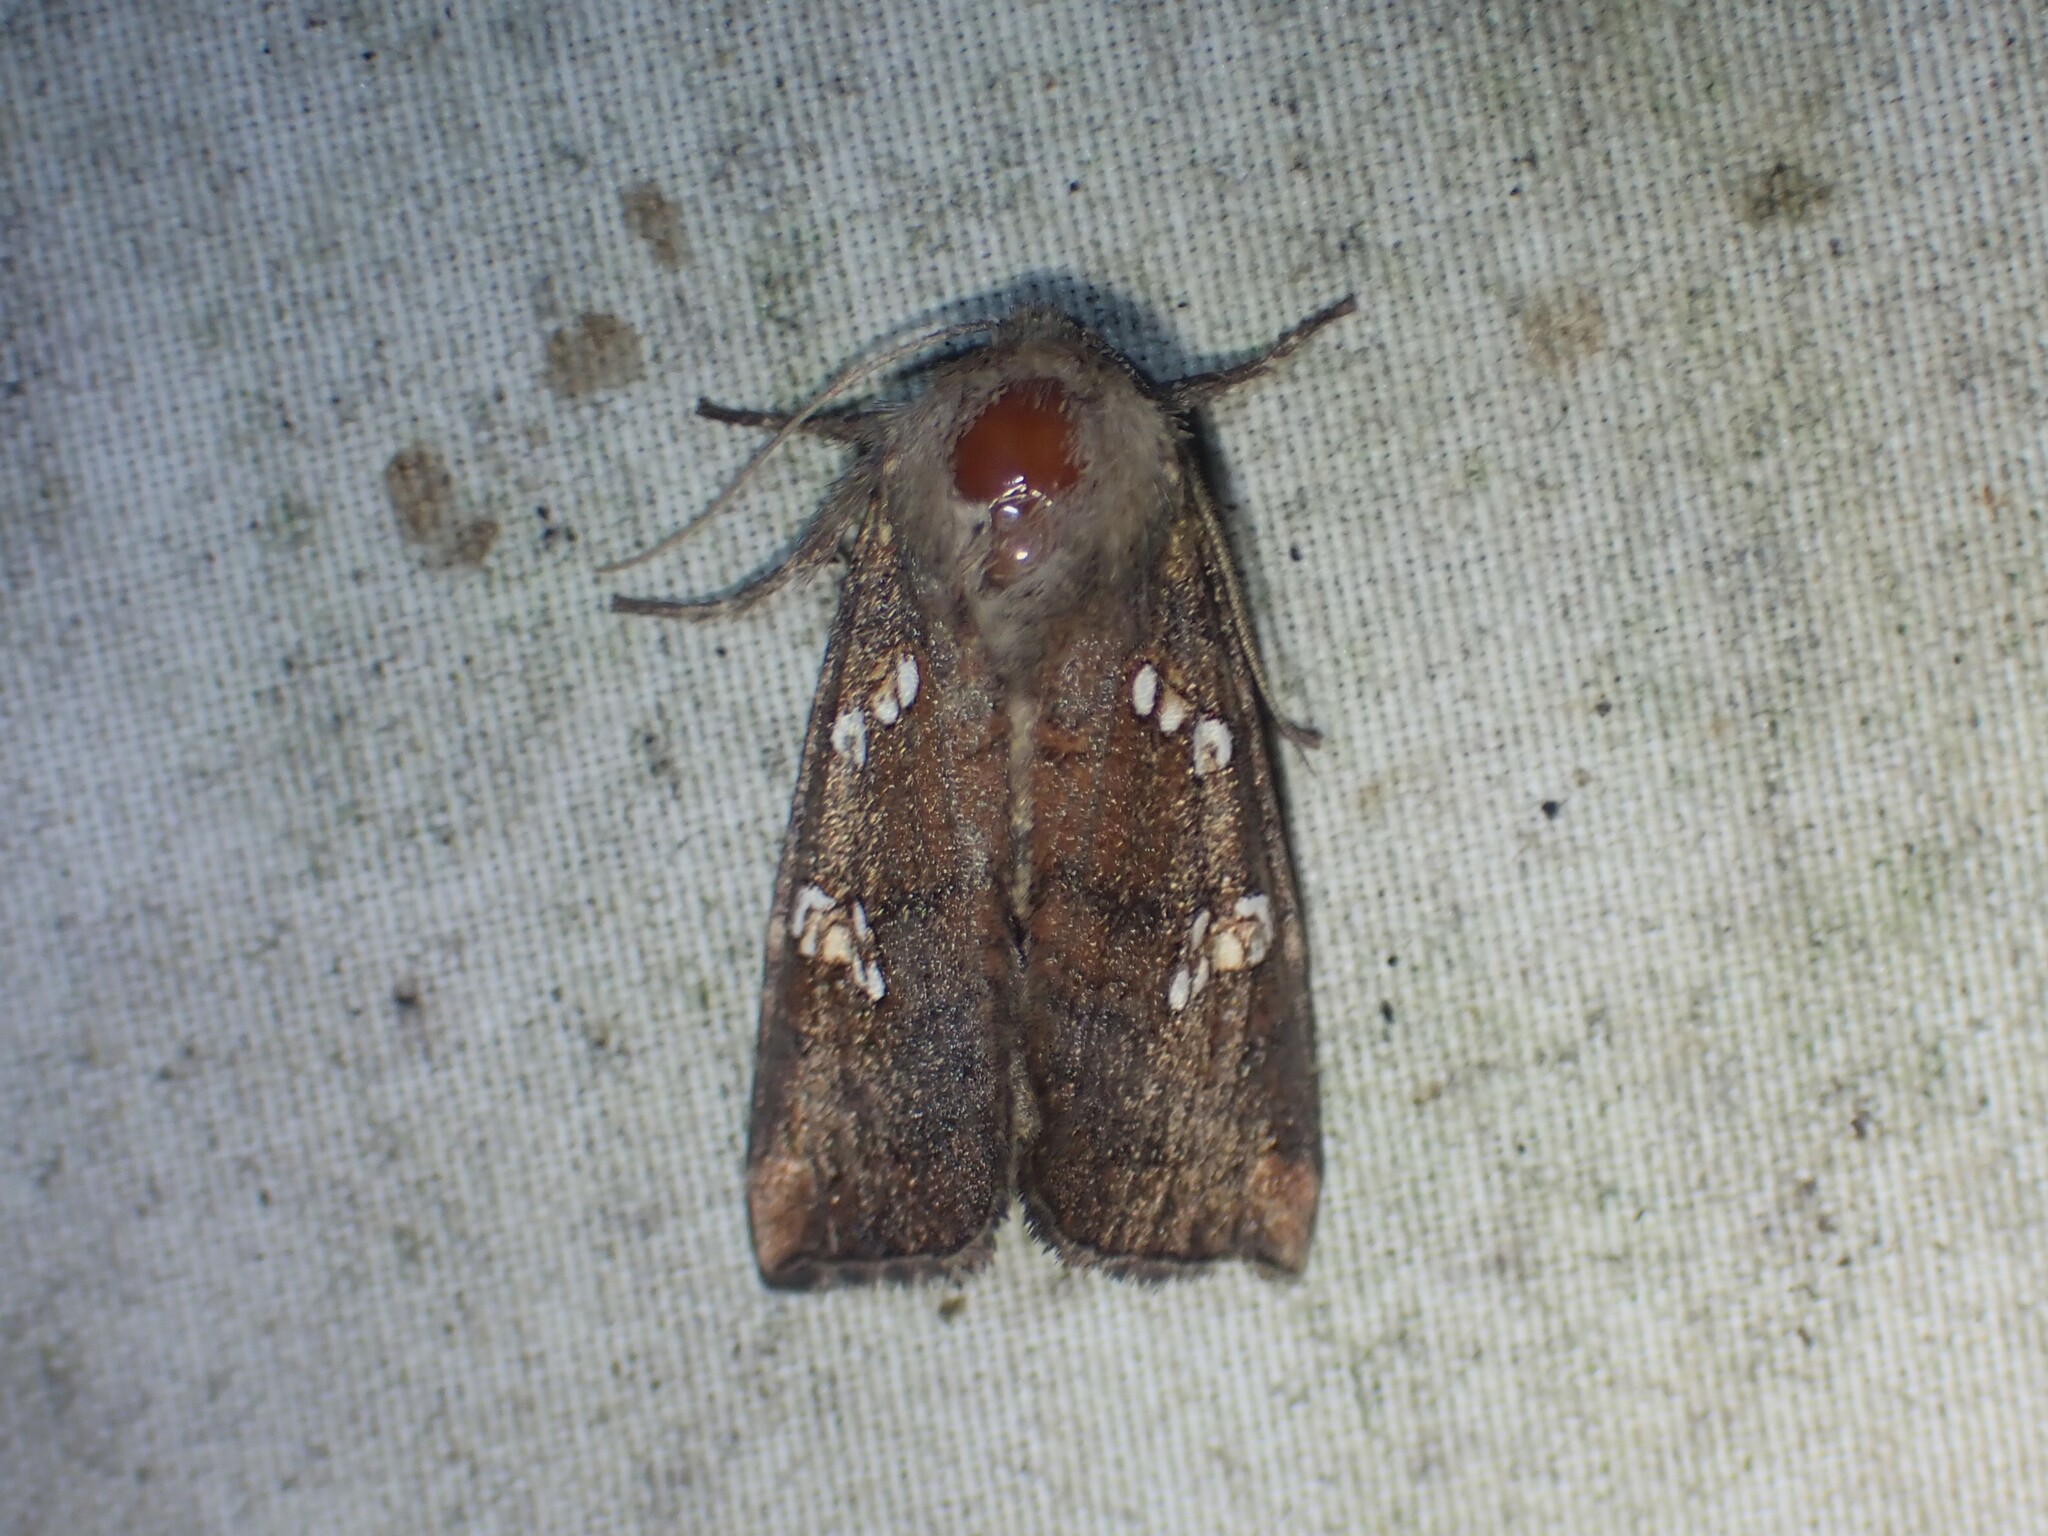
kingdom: Animalia
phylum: Arthropoda
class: Insecta
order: Lepidoptera
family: Noctuidae
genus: Papaipema
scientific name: Papaipema unimoda
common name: Meadow rue borer moth
